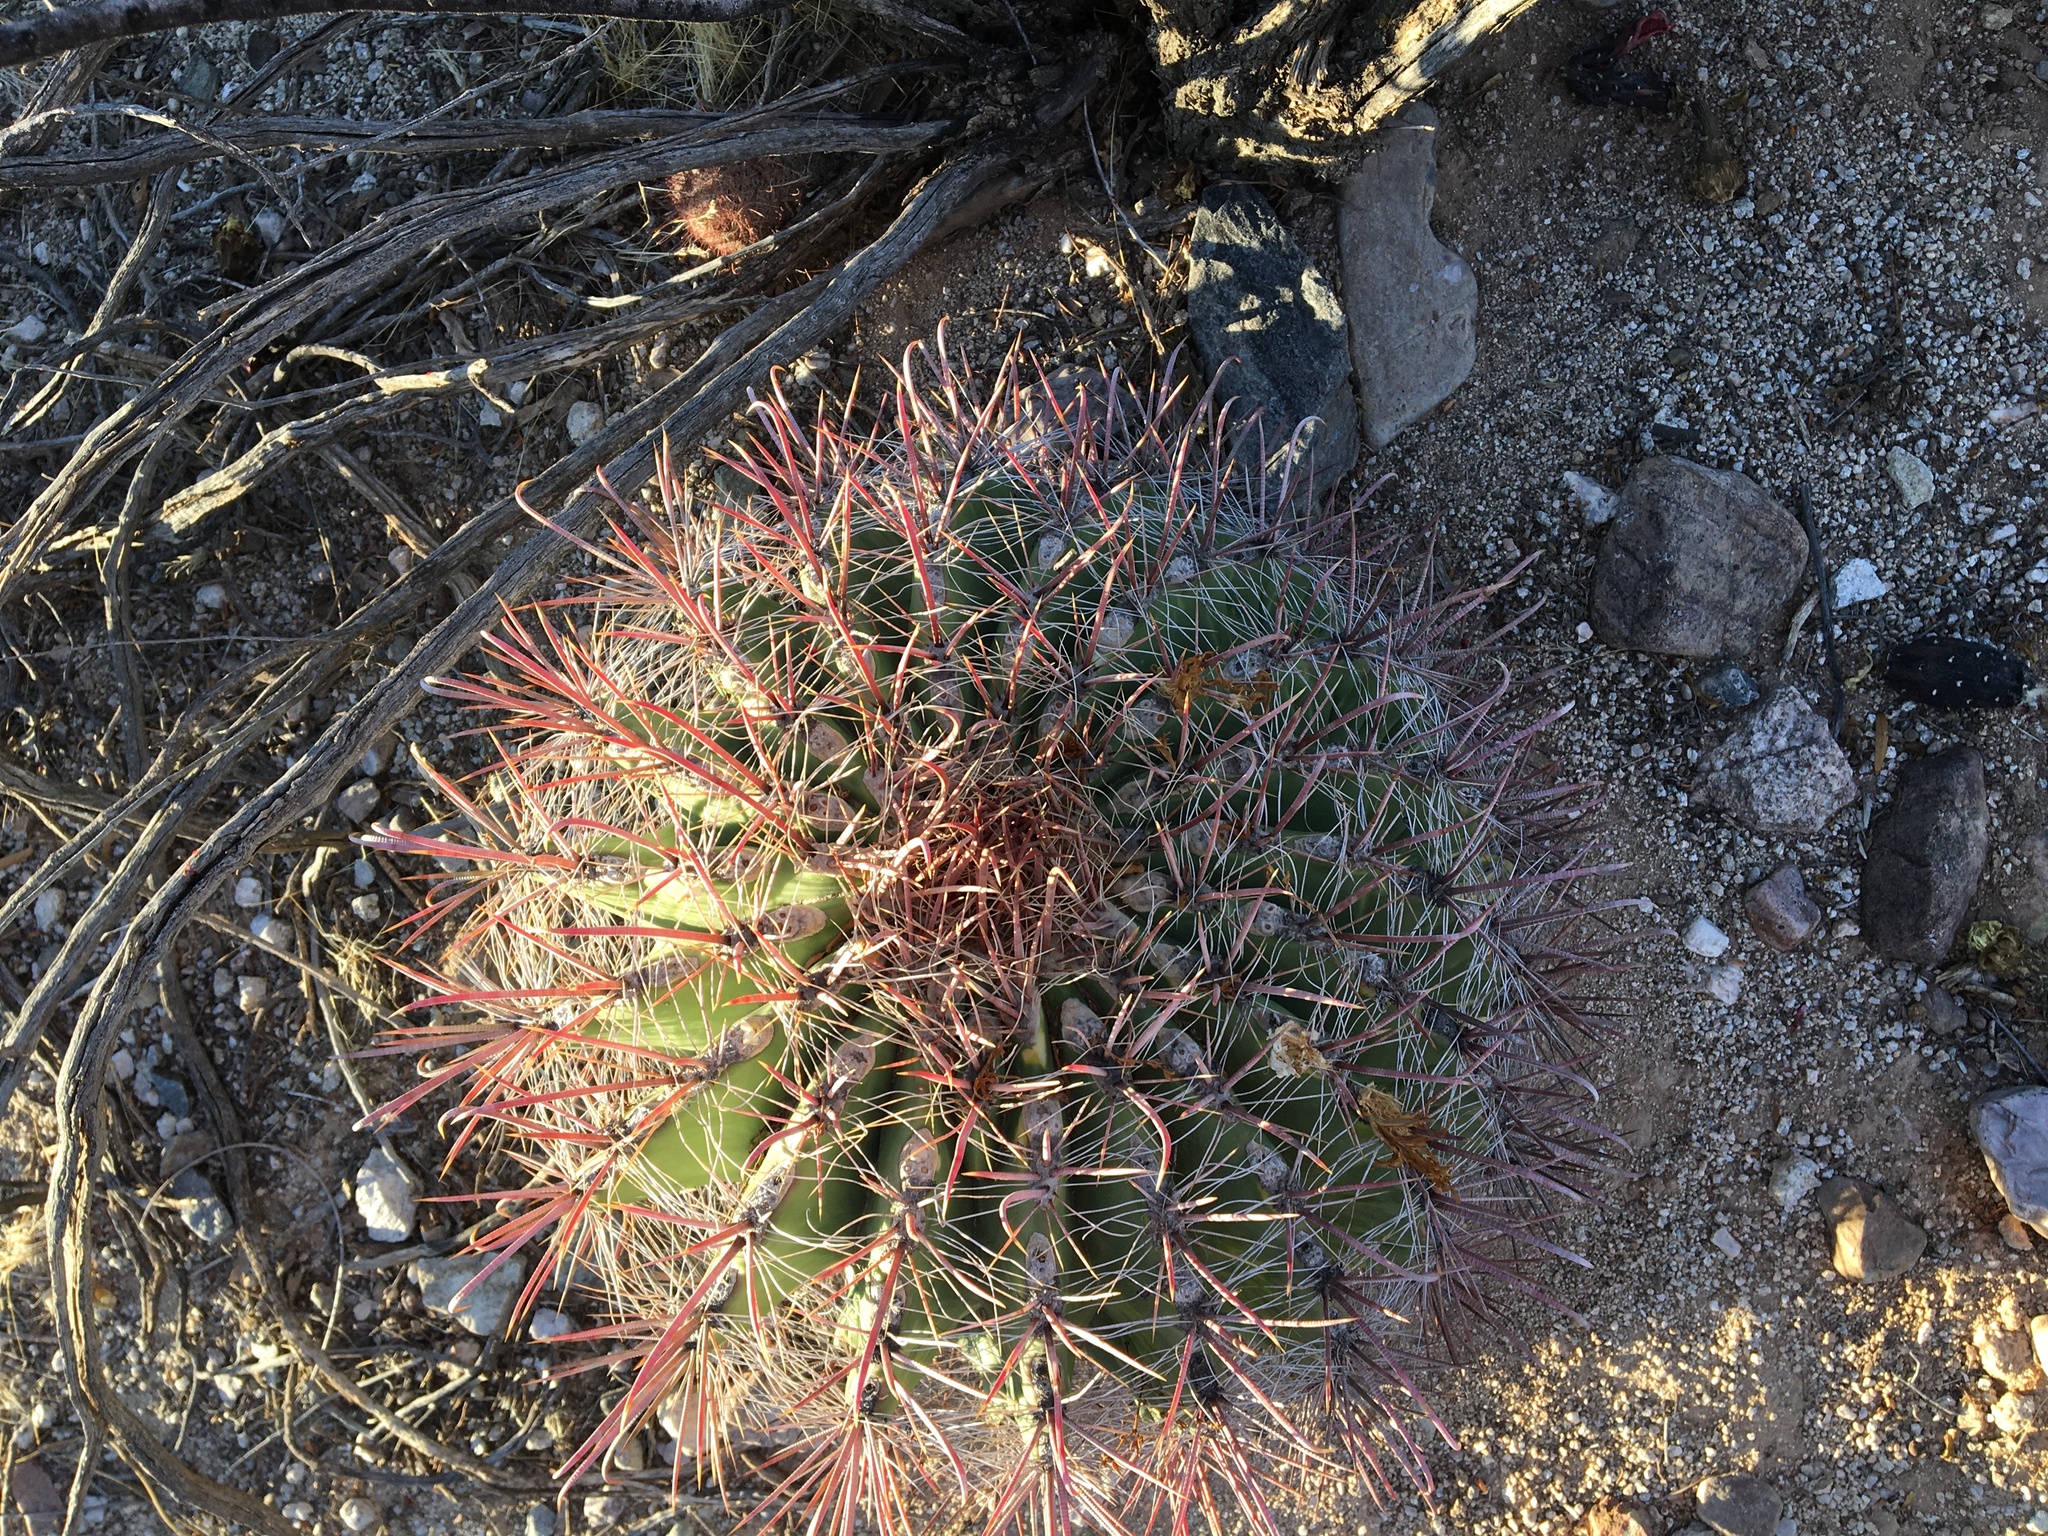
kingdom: Plantae
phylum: Tracheophyta
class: Magnoliopsida
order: Caryophyllales
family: Cactaceae
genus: Ferocactus
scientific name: Ferocactus wislizeni
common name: Candy barrel cactus
